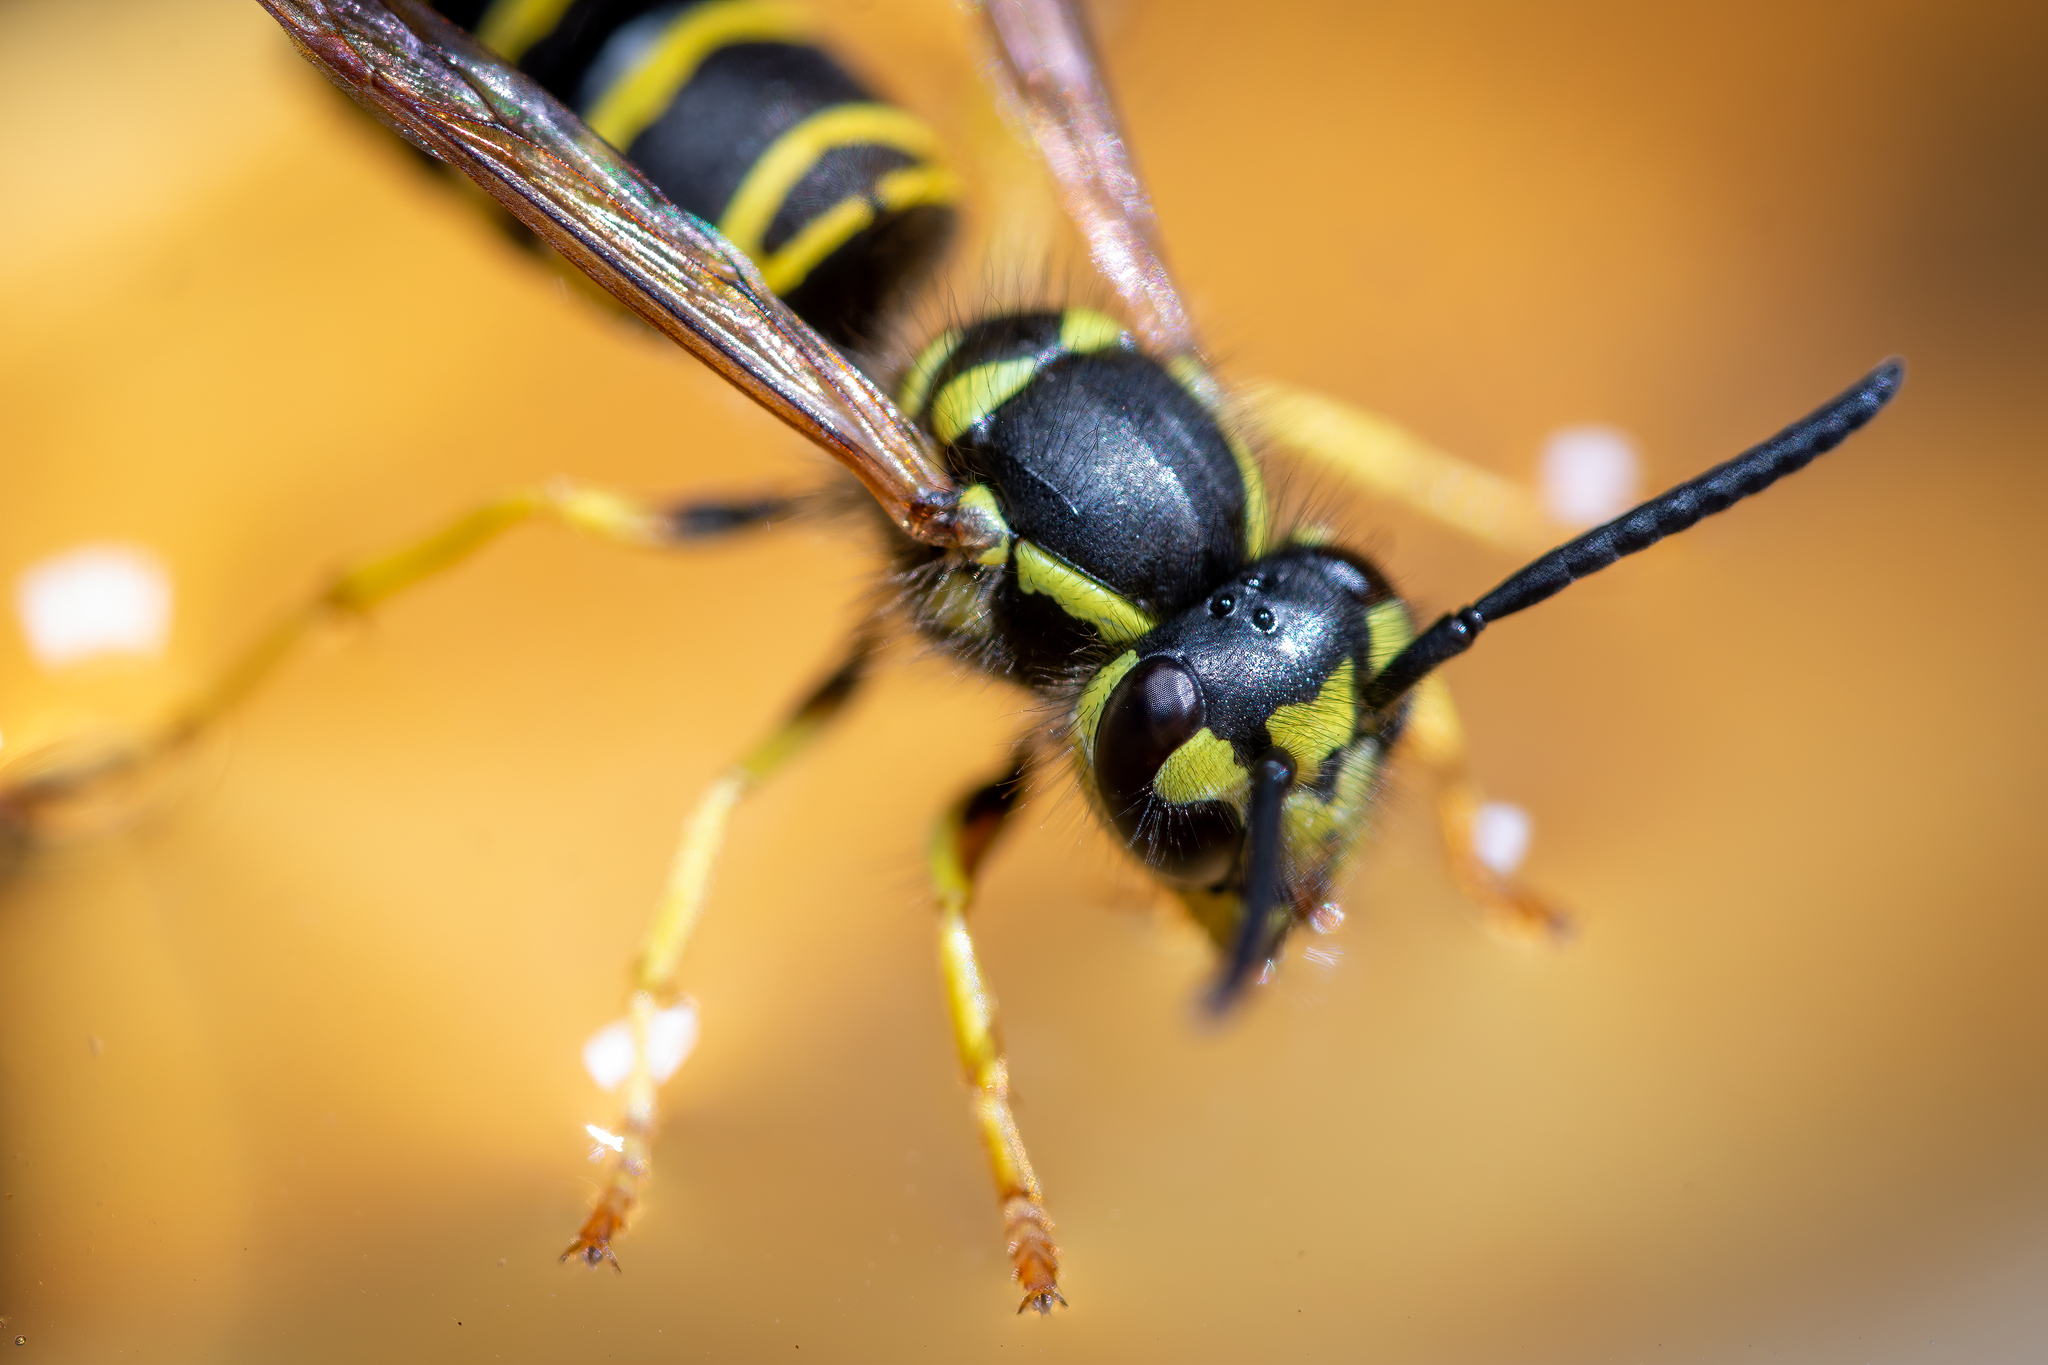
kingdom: Animalia
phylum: Arthropoda
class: Insecta
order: Hymenoptera
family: Vespidae
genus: Vespula
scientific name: Vespula maculifrons
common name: Eastern yellowjacket
